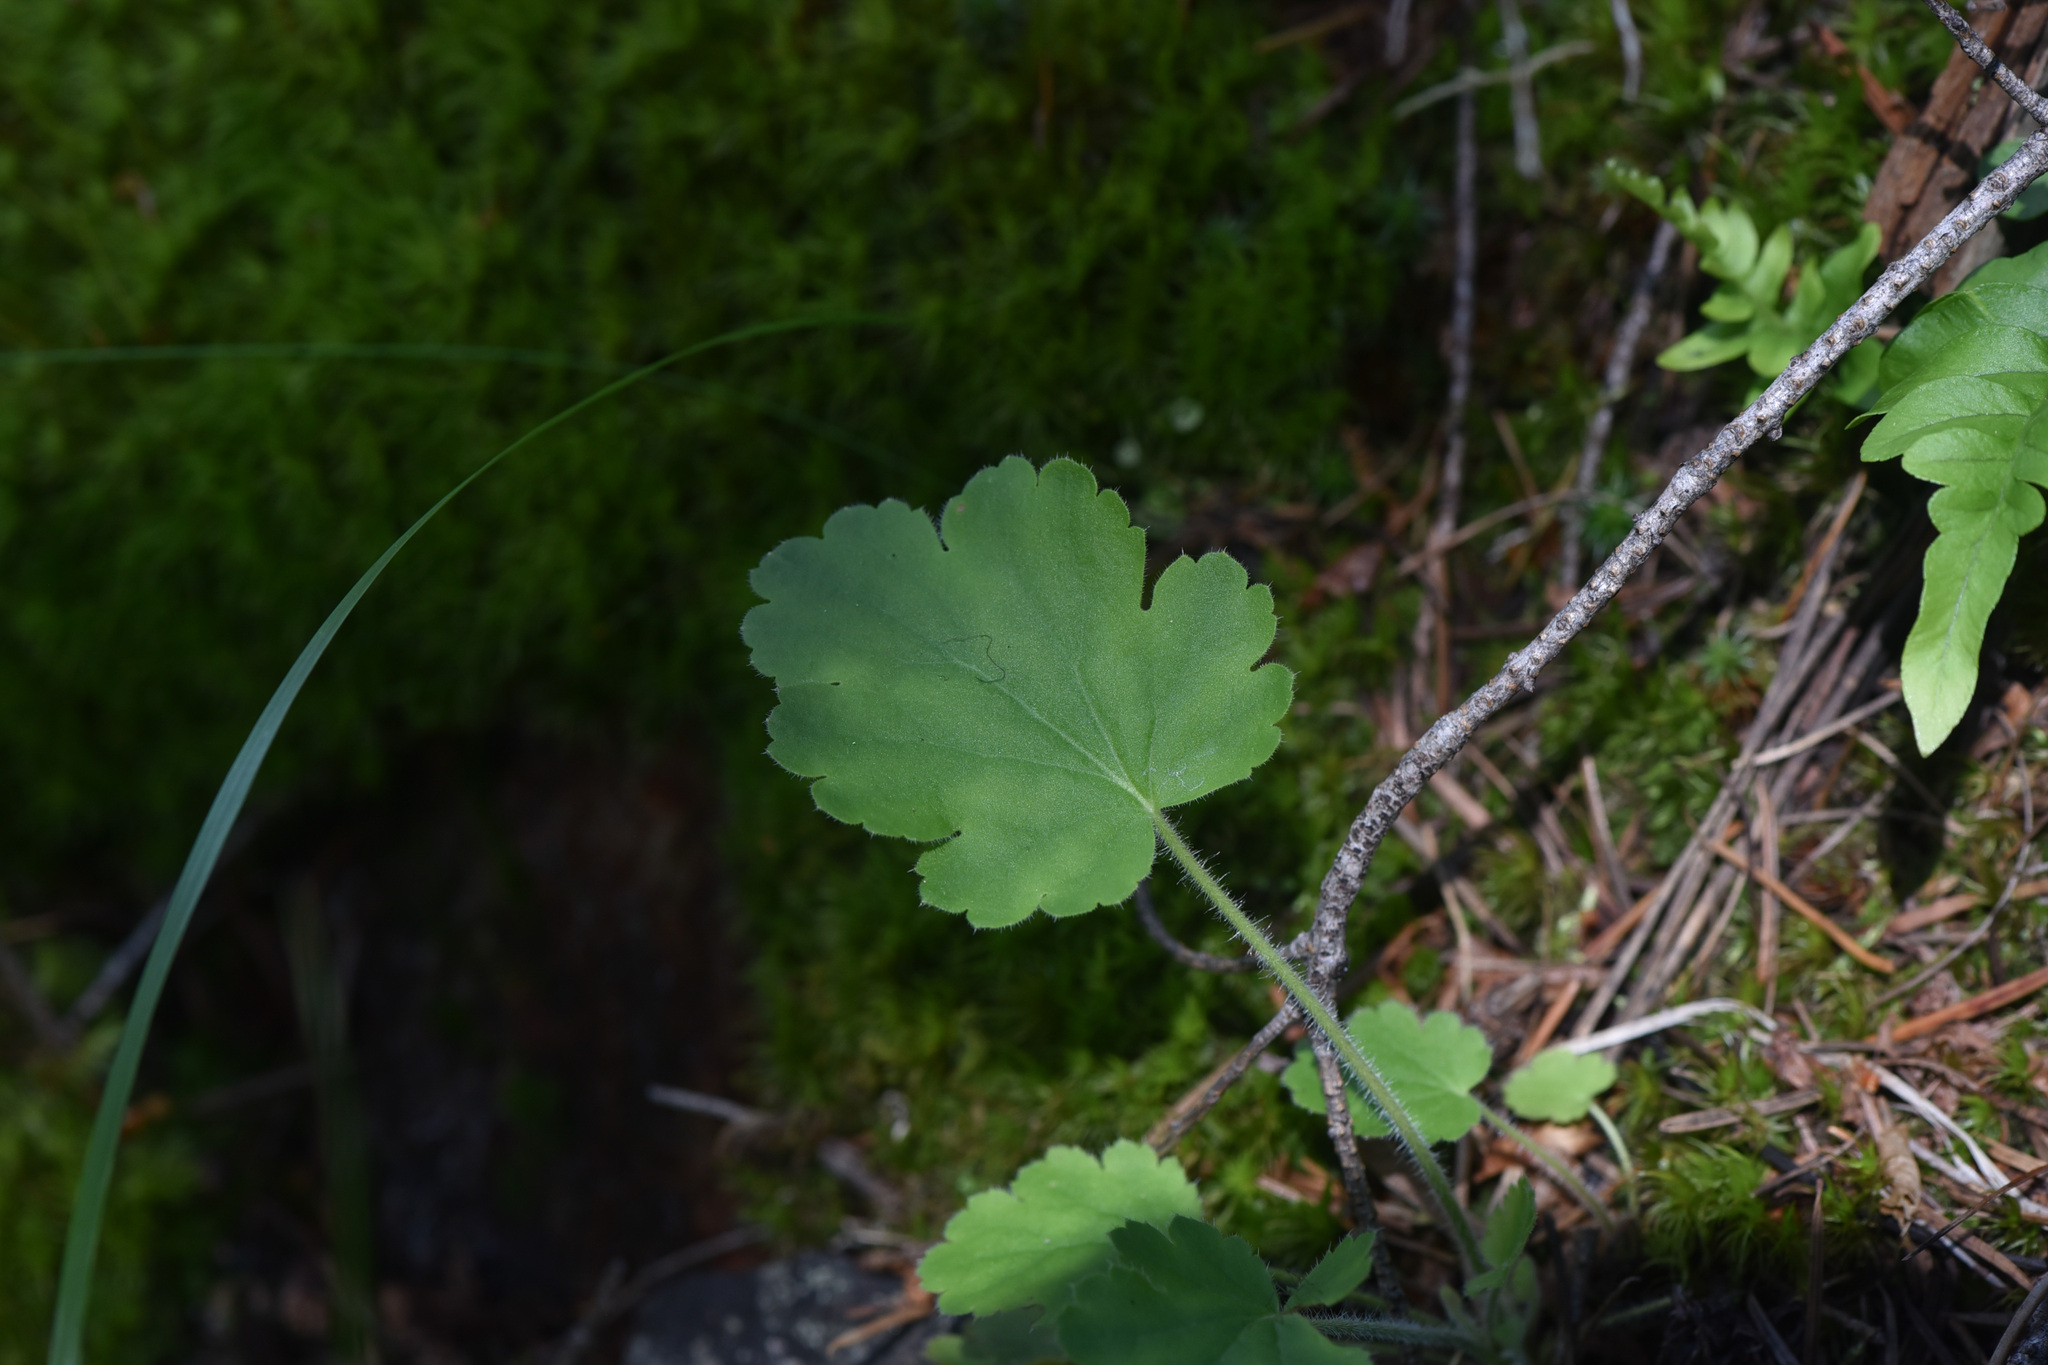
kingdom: Plantae
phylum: Tracheophyta
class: Magnoliopsida
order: Saxifragales
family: Saxifragaceae
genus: Heuchera
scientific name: Heuchera cylindrica
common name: Mat alumroot
